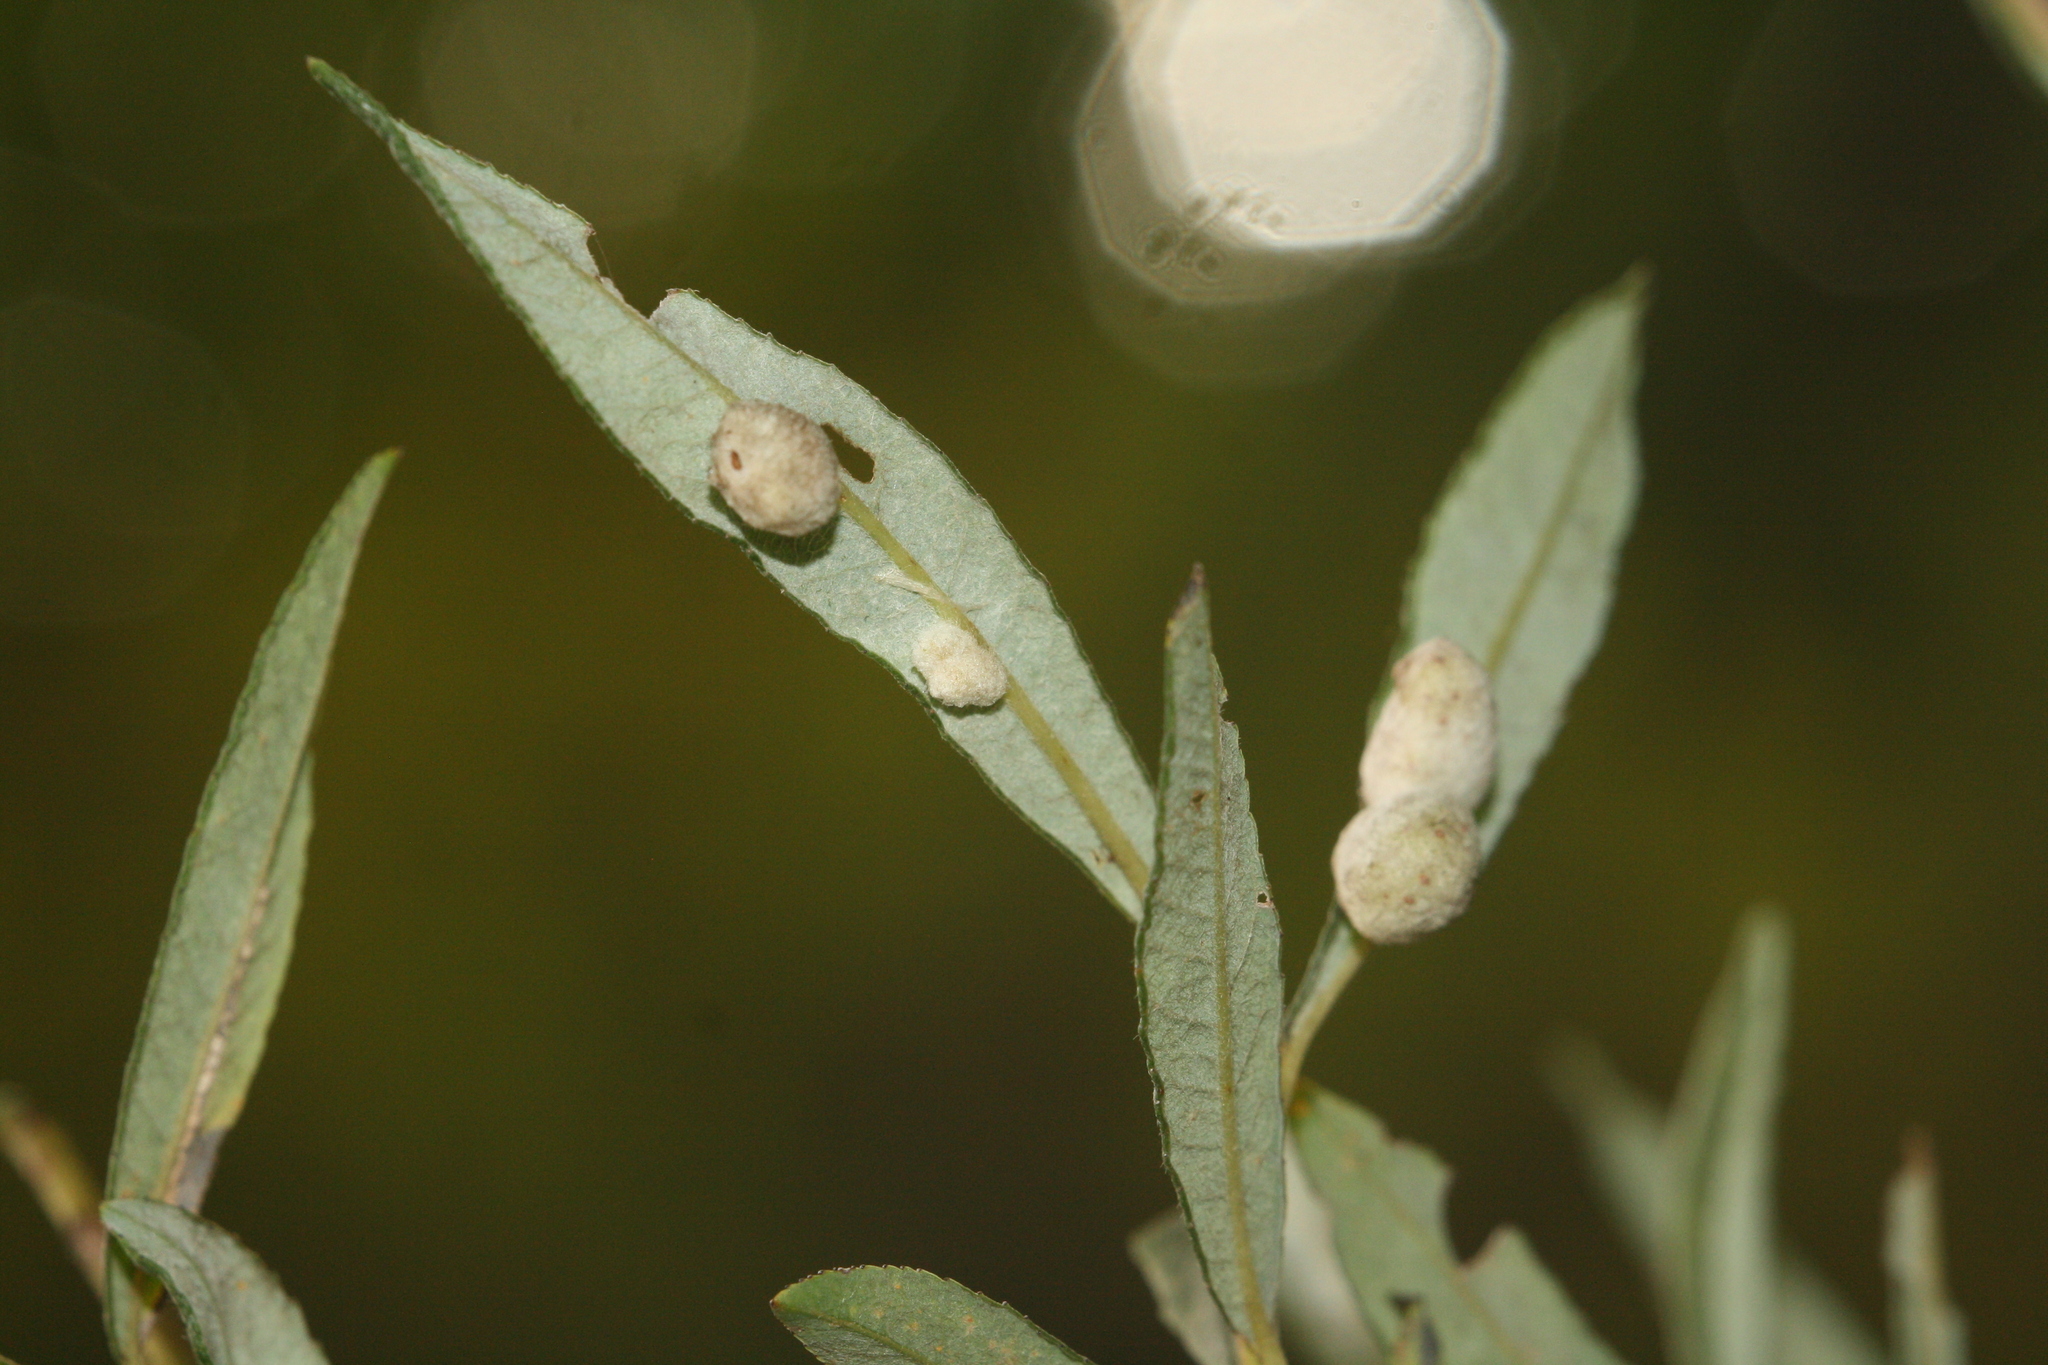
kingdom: Animalia
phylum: Arthropoda
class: Insecta
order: Hymenoptera
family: Tenthredinidae
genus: Euura
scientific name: Euura kriechbaumeri
